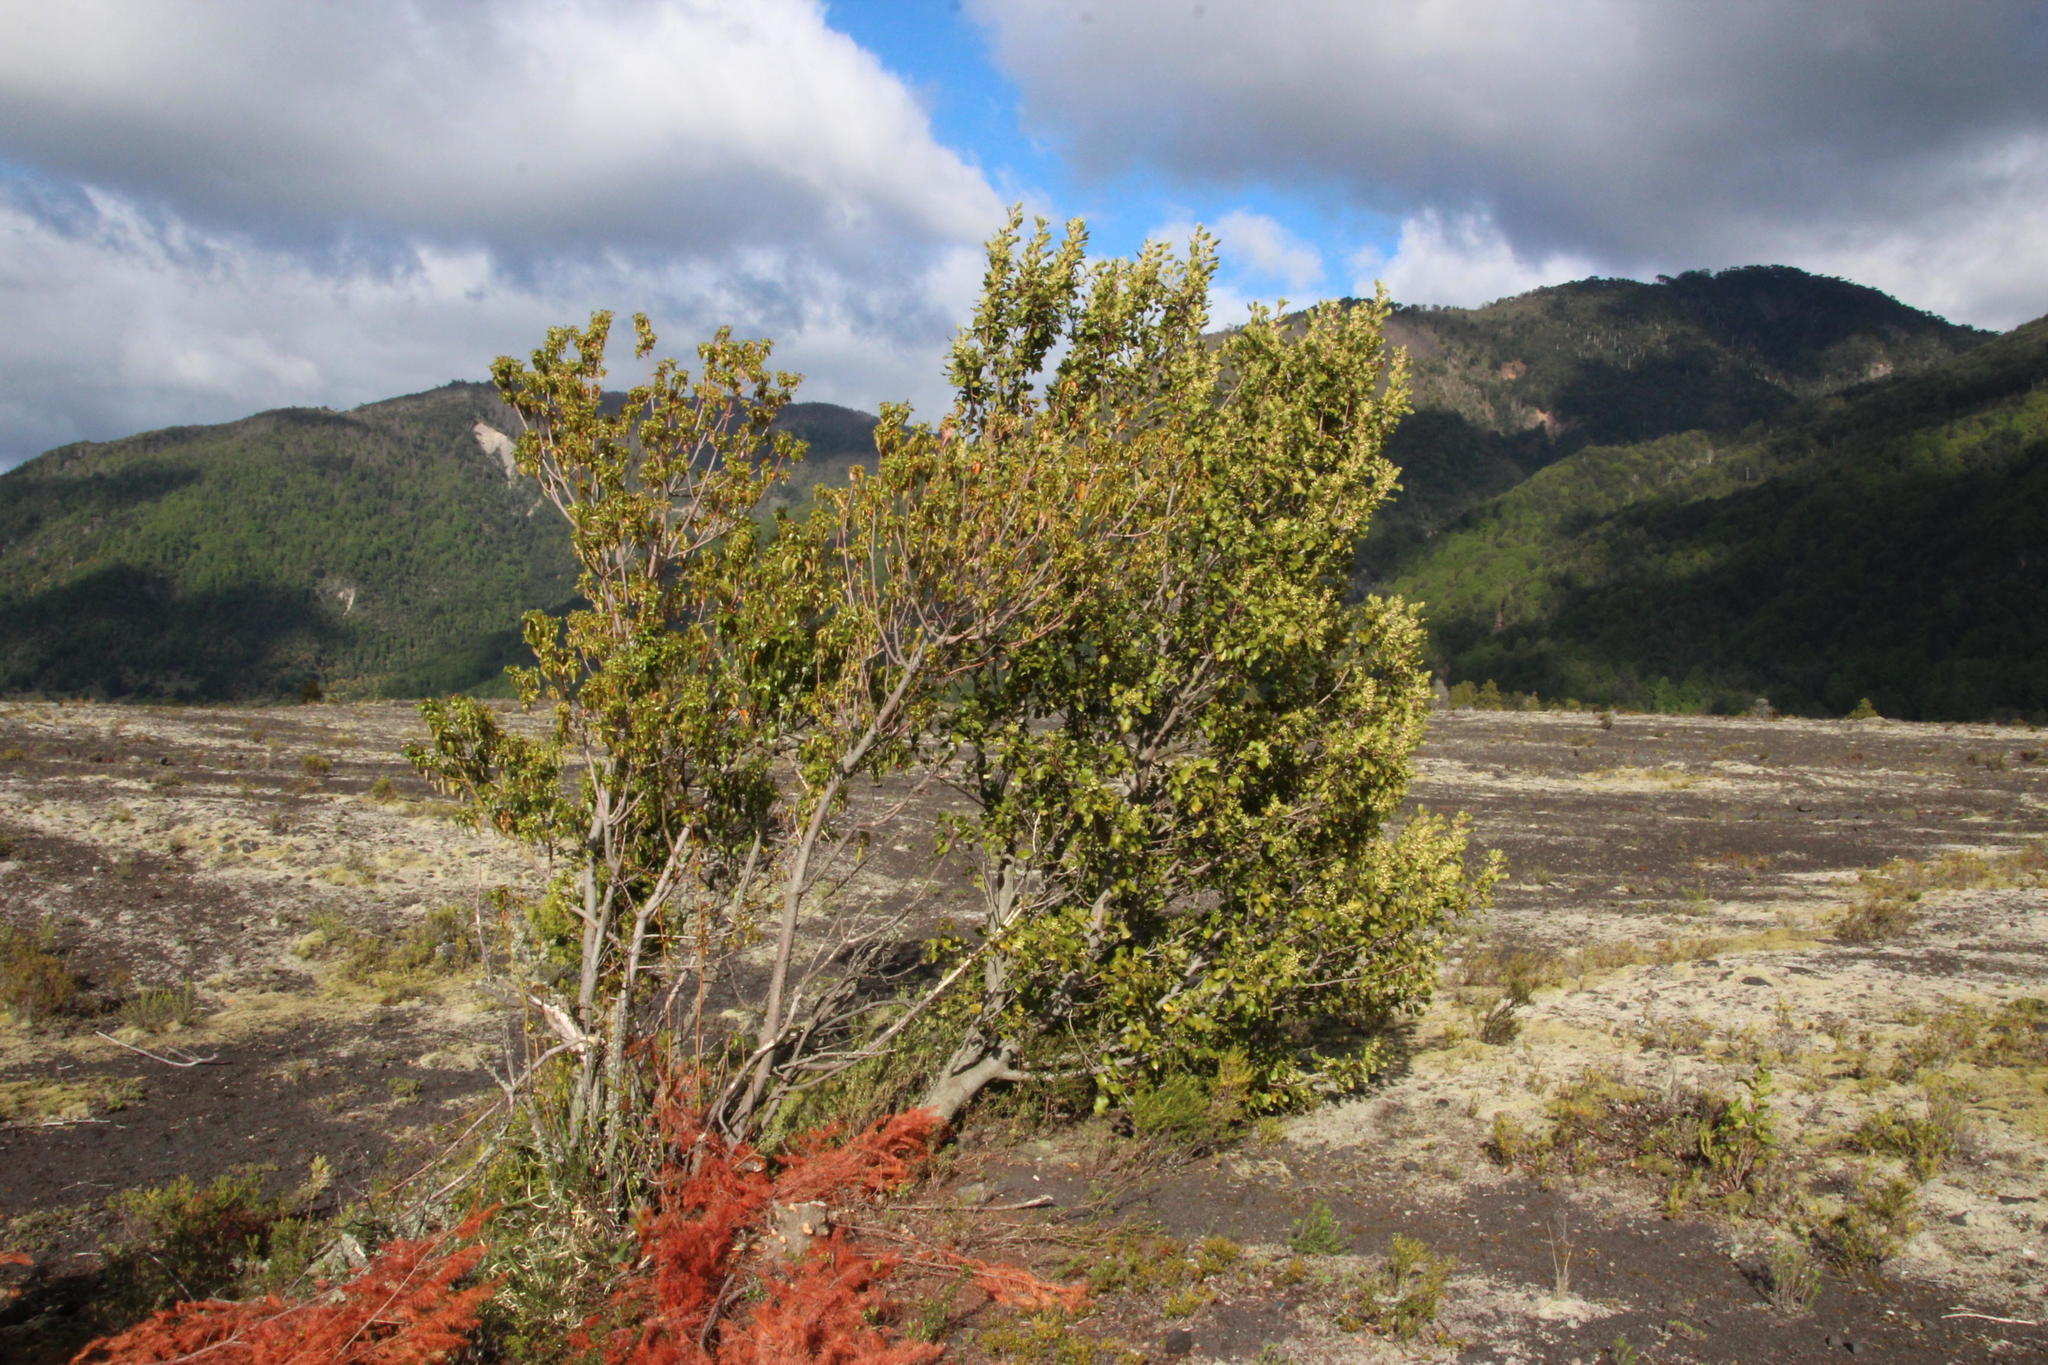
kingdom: Plantae
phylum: Tracheophyta
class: Magnoliopsida
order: Oxalidales
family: Elaeocarpaceae
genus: Aristotelia
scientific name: Aristotelia chilensis
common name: Maquei
